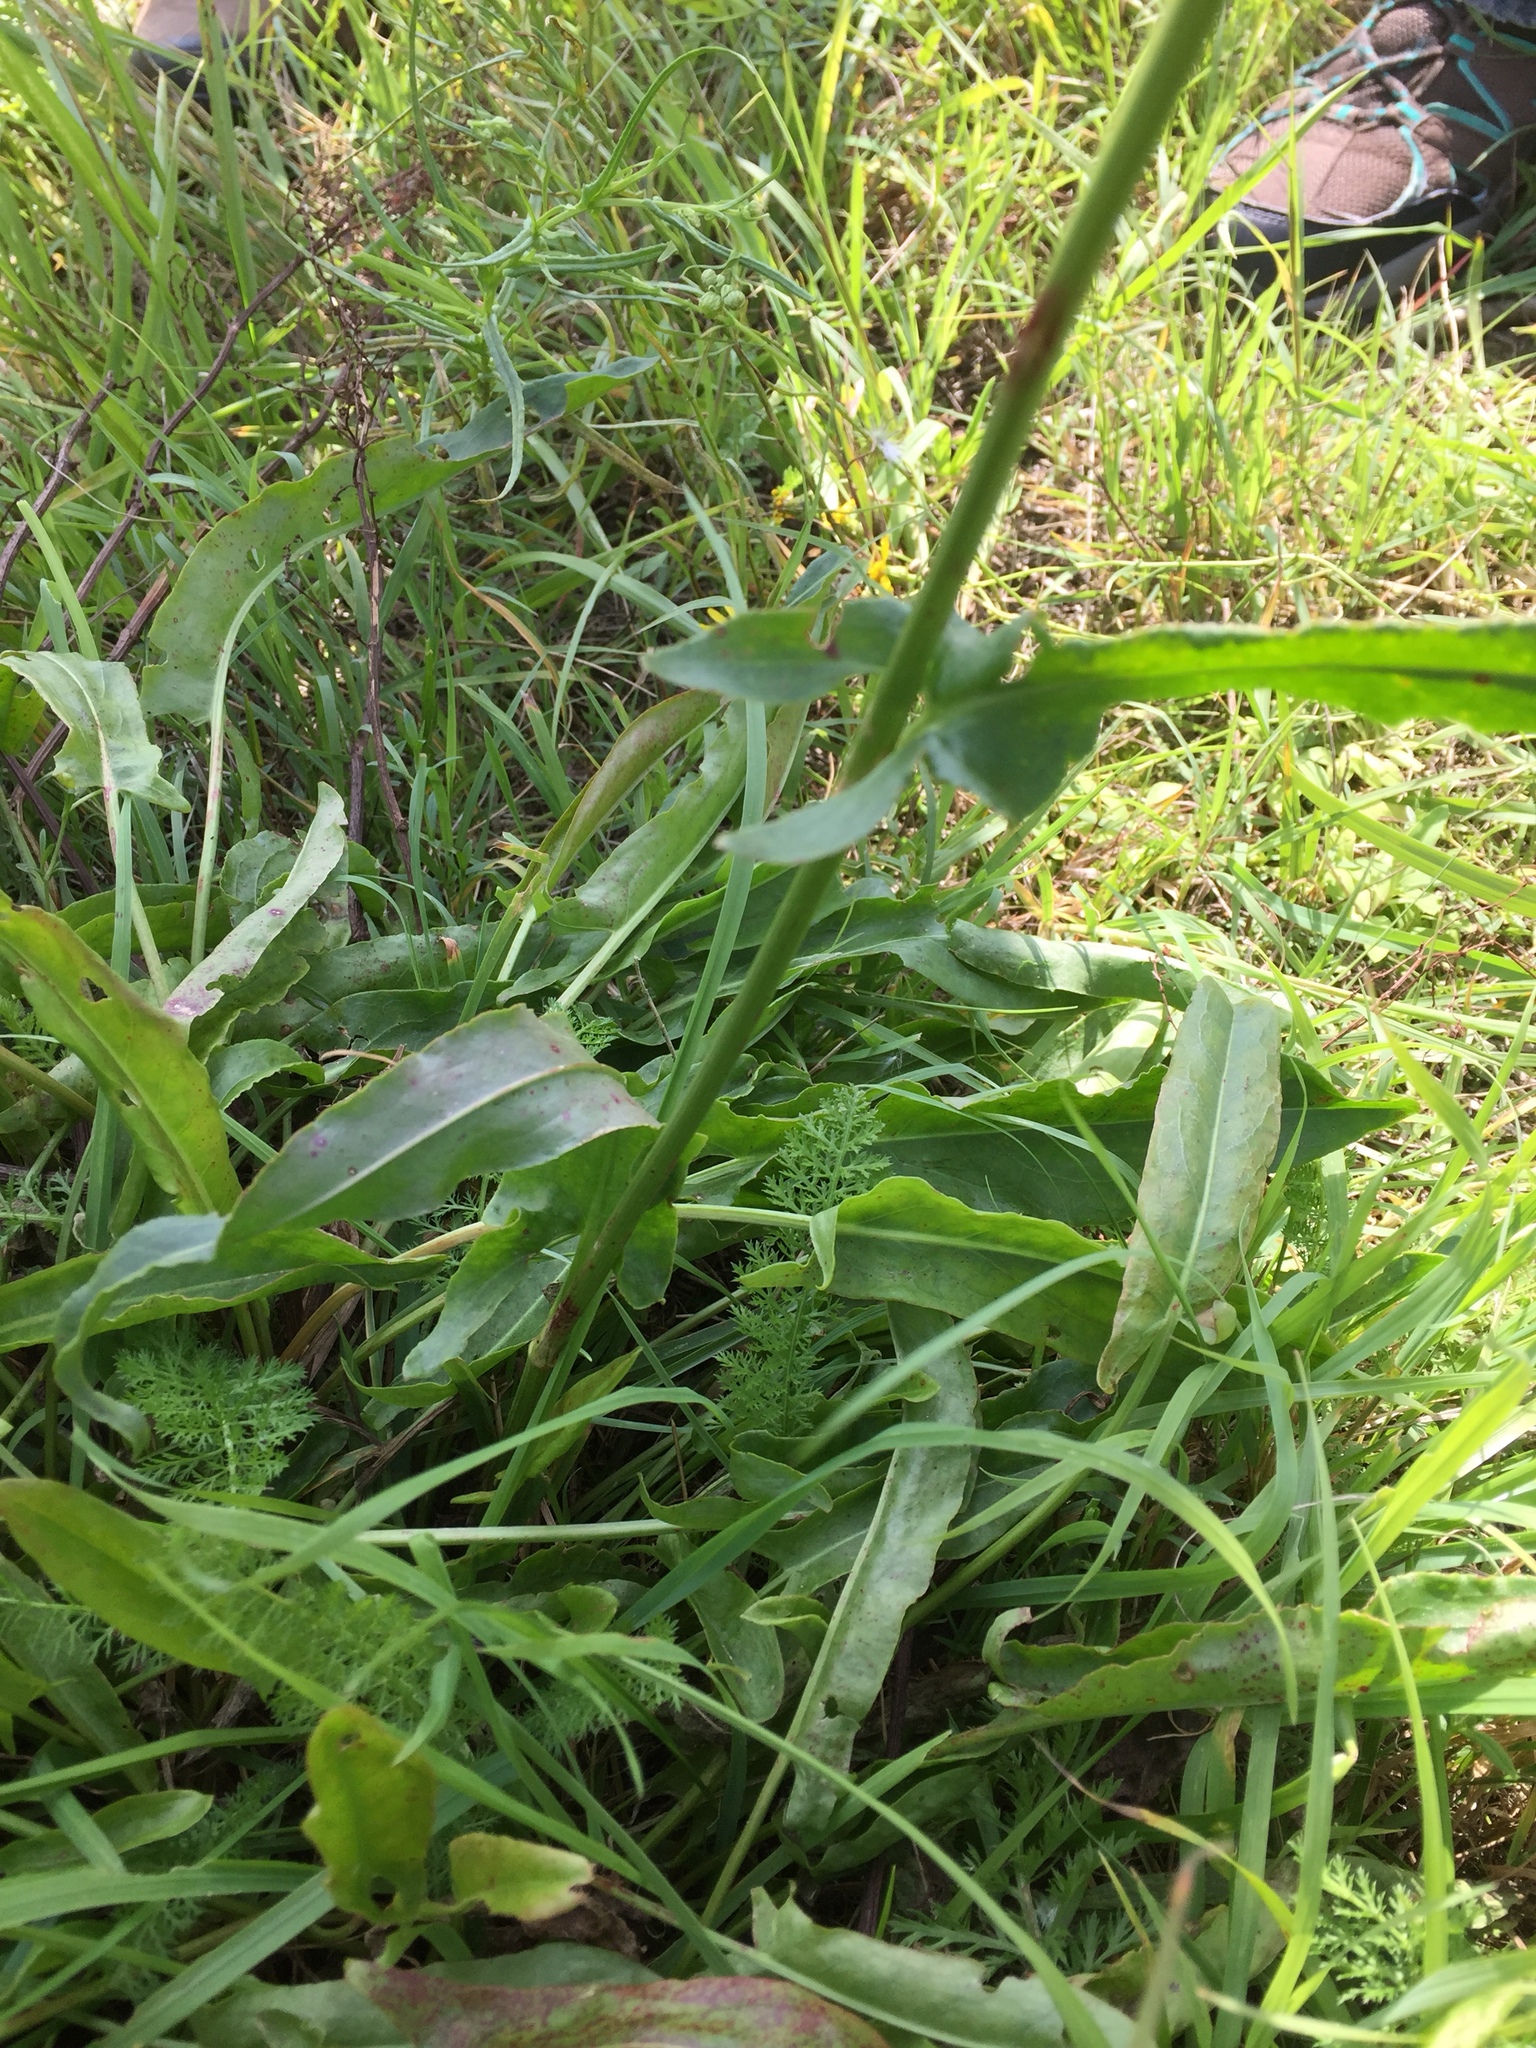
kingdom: Plantae
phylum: Tracheophyta
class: Magnoliopsida
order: Caryophyllales
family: Polygonaceae
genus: Rumex
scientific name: Rumex thyrsiflorus
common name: Garden sorrel
